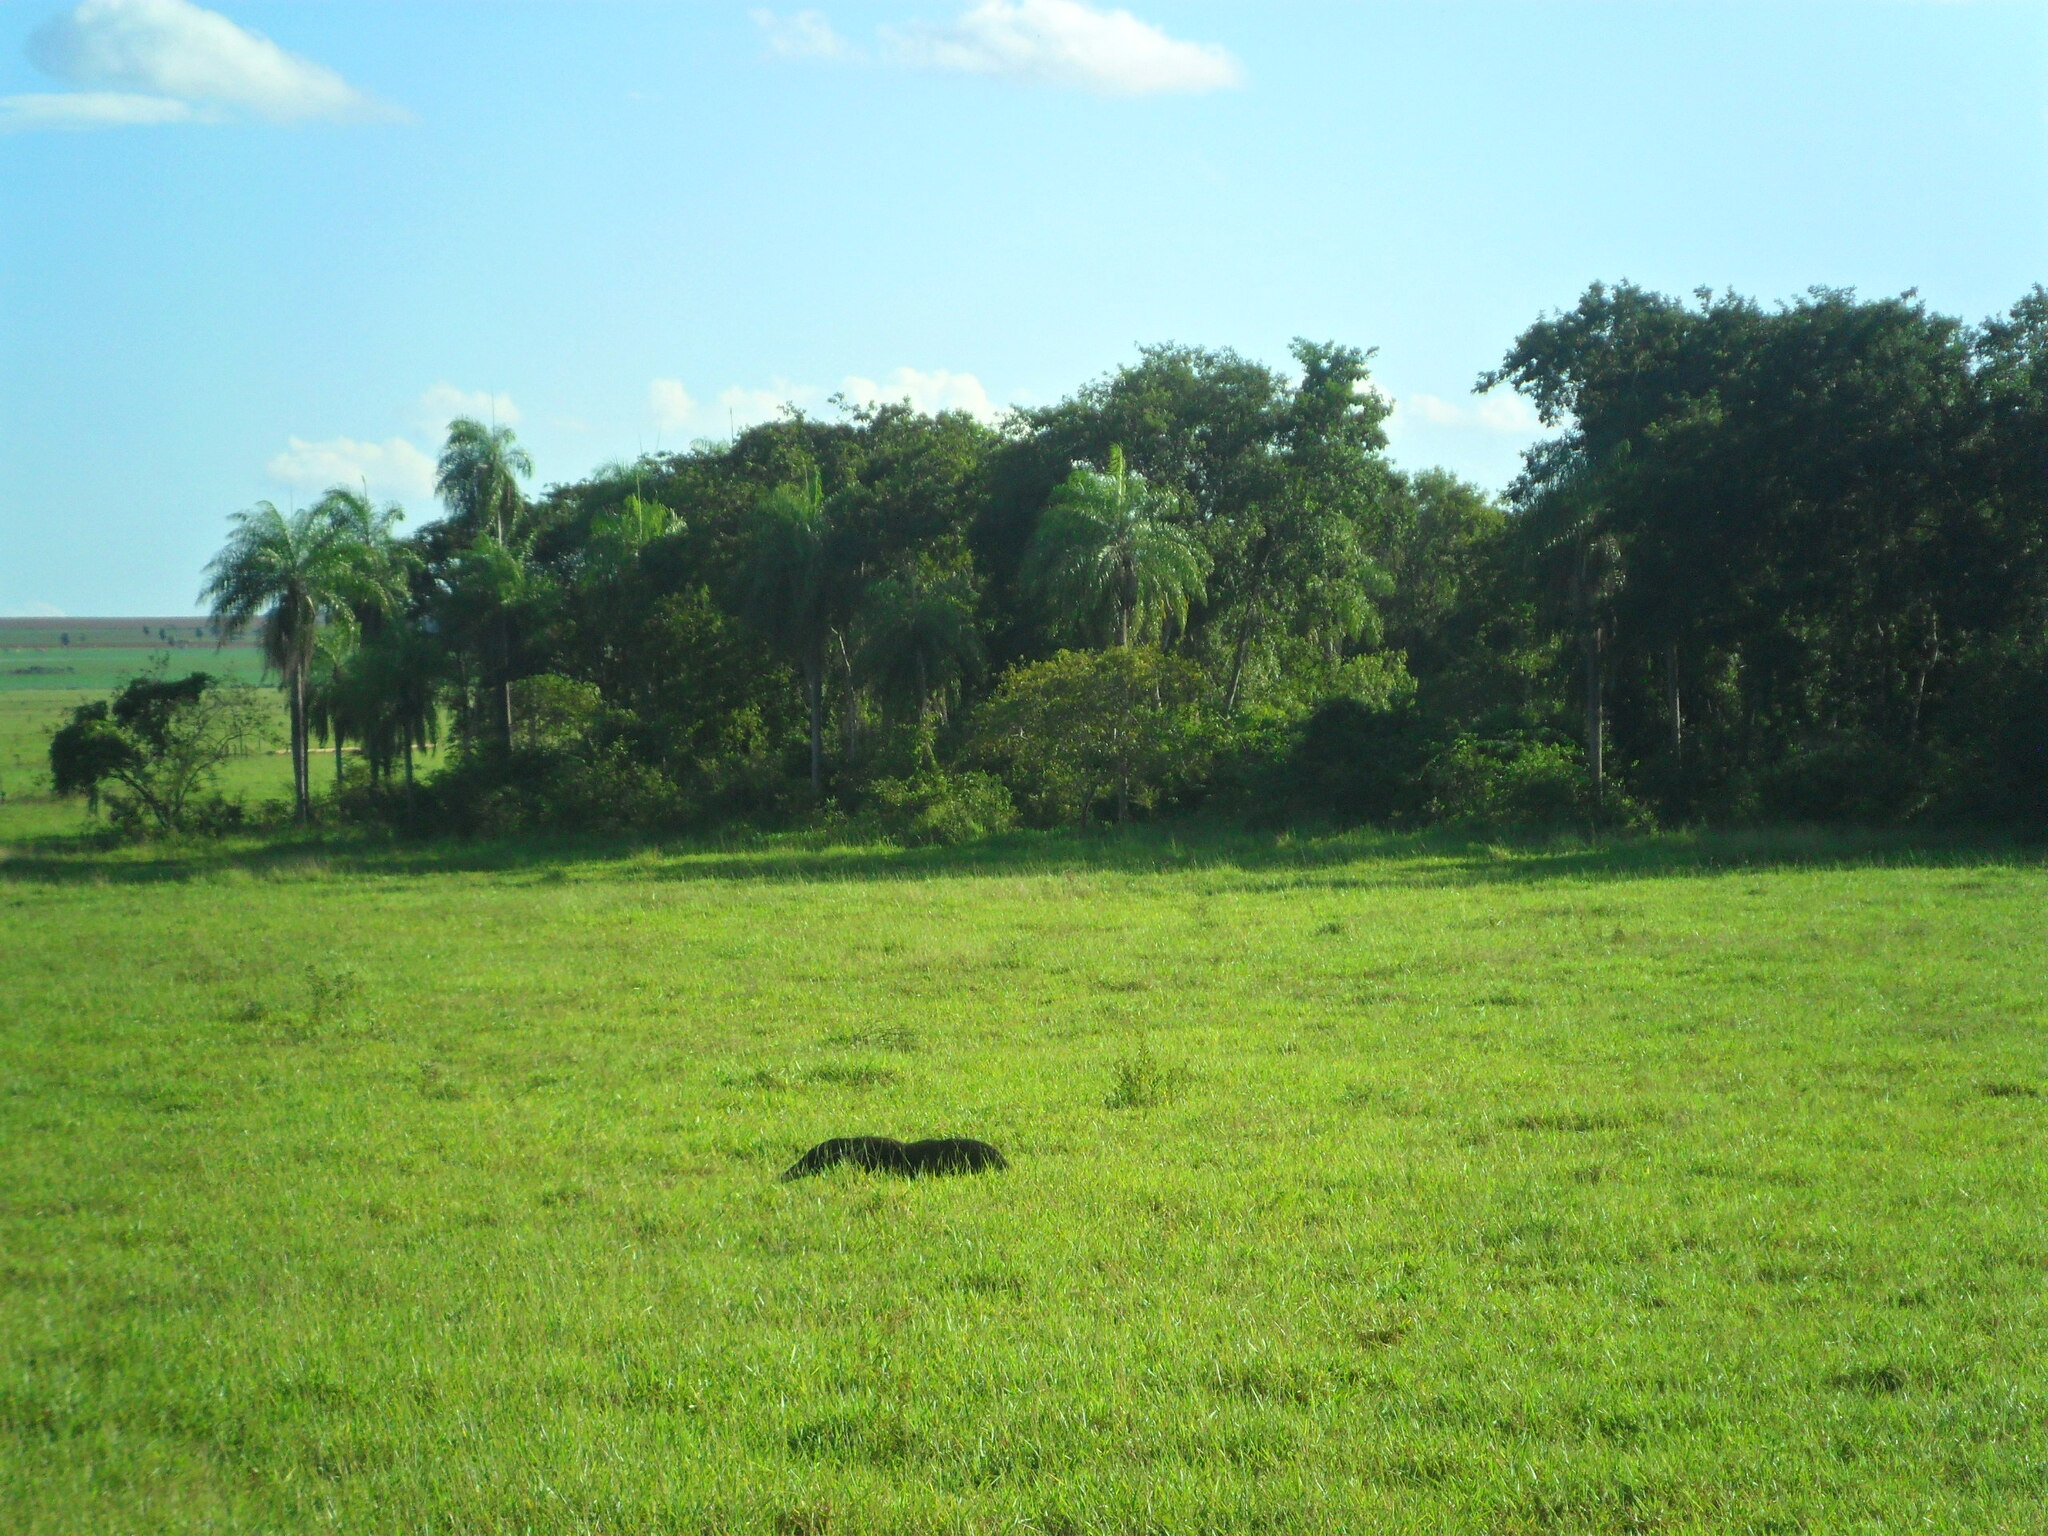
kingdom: Animalia
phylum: Chordata
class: Mammalia
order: Pilosa
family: Myrmecophagidae
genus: Myrmecophaga
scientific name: Myrmecophaga tridactyla
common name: Giant anteater
